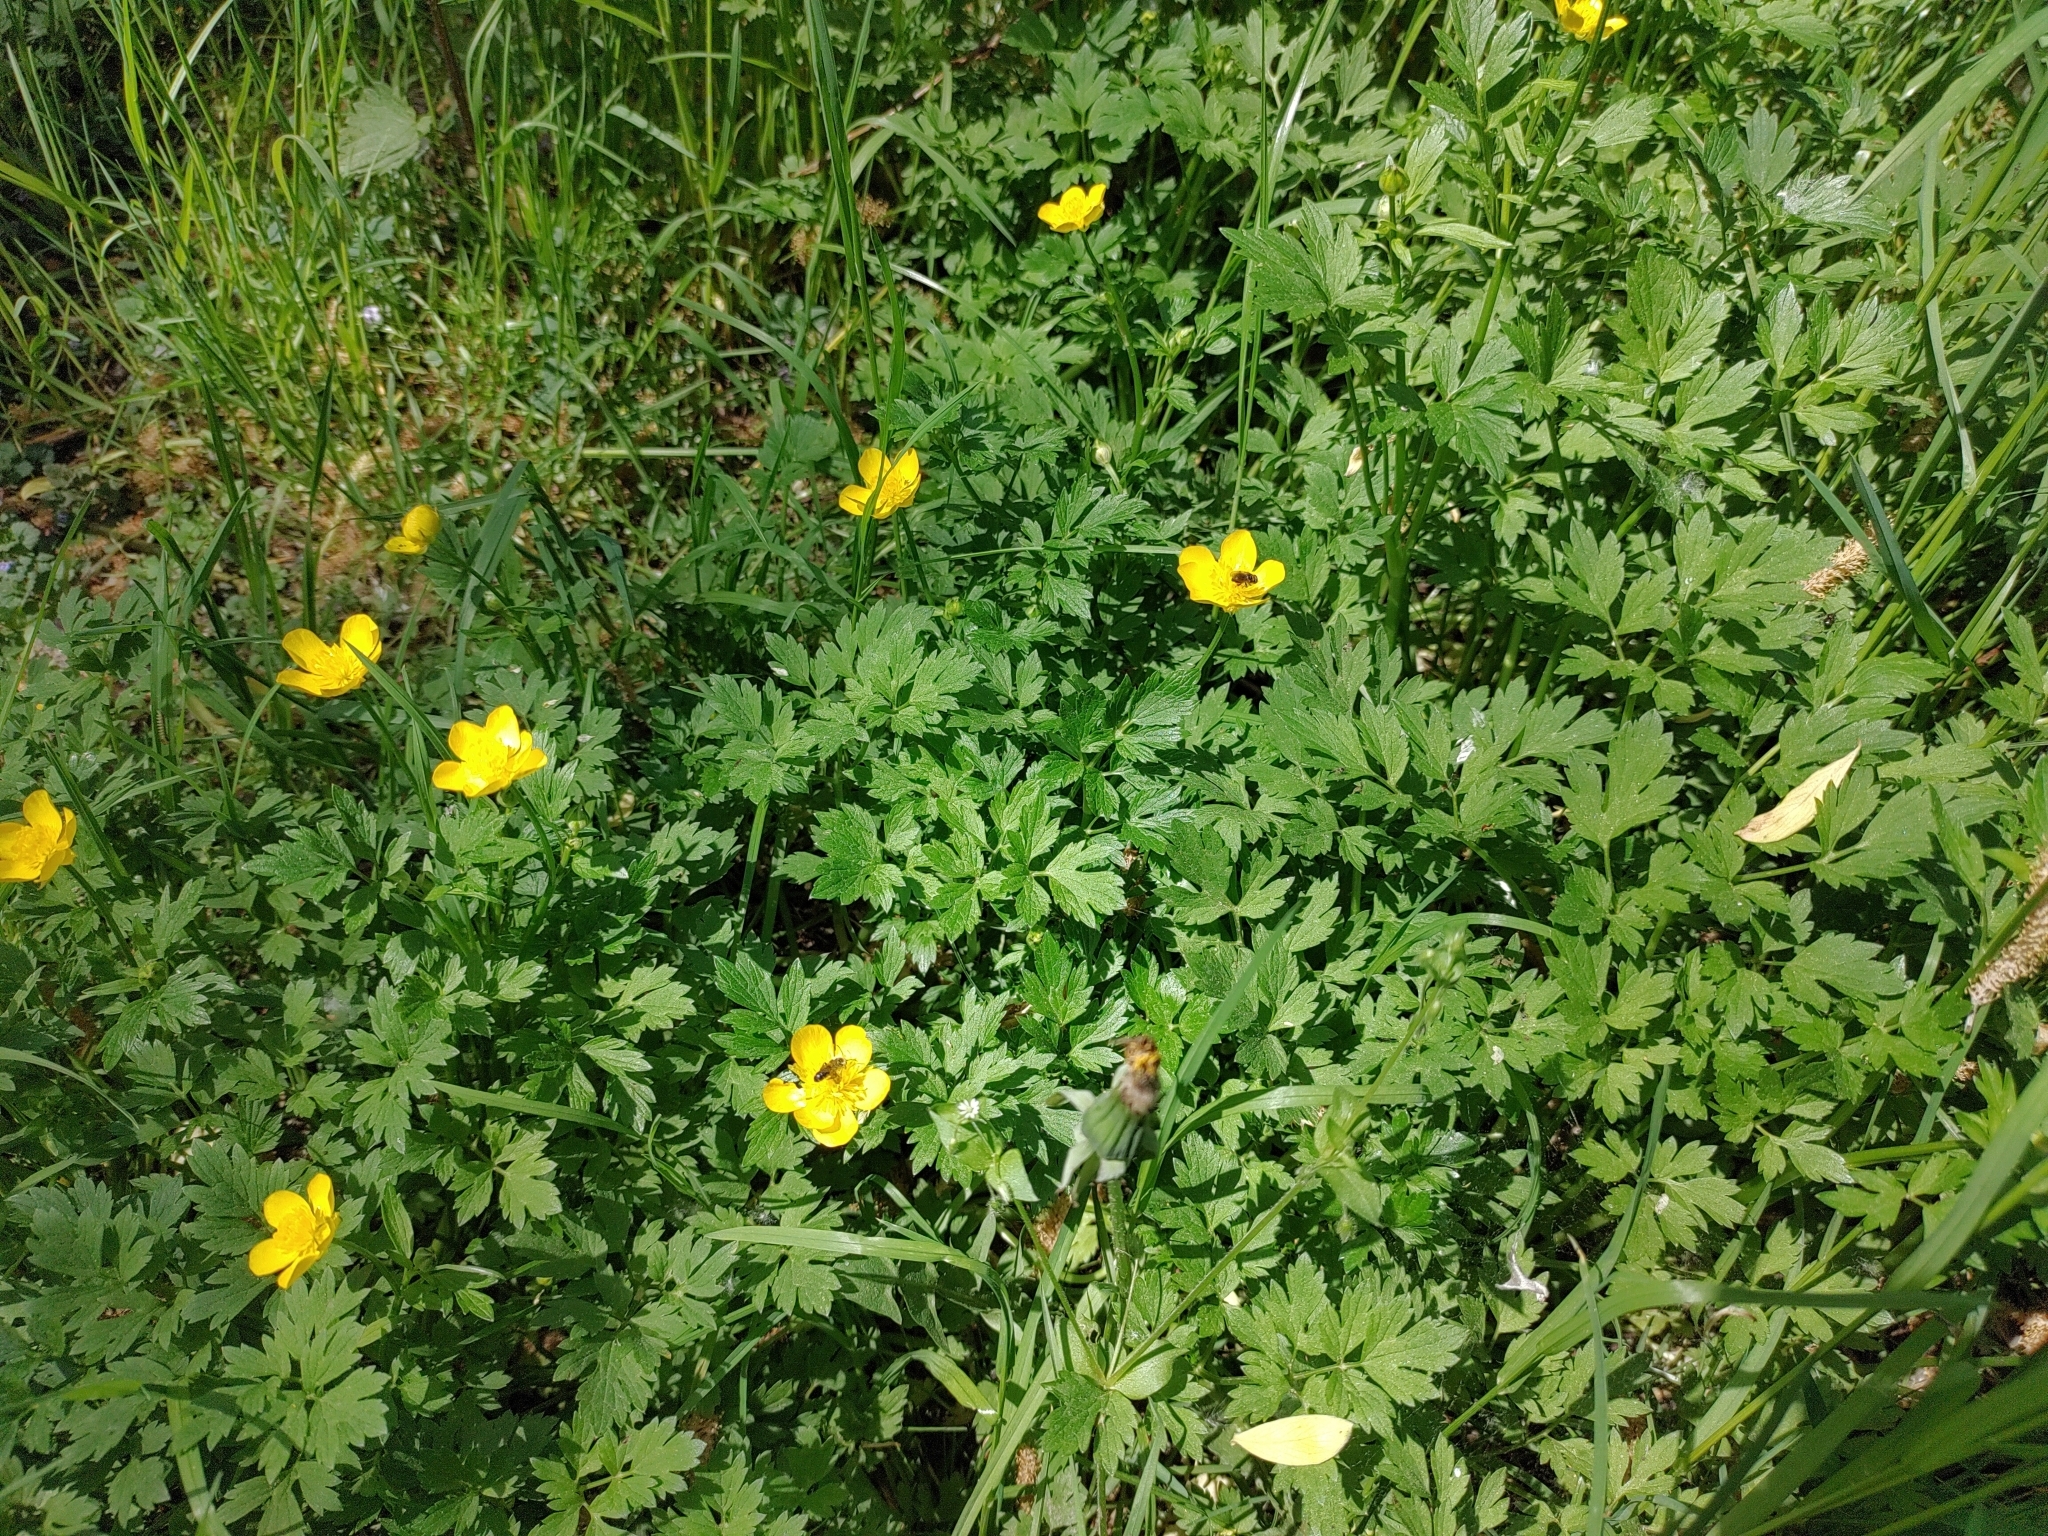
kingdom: Plantae
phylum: Tracheophyta
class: Magnoliopsida
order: Ranunculales
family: Ranunculaceae
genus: Ranunculus
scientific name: Ranunculus repens
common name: Creeping buttercup
